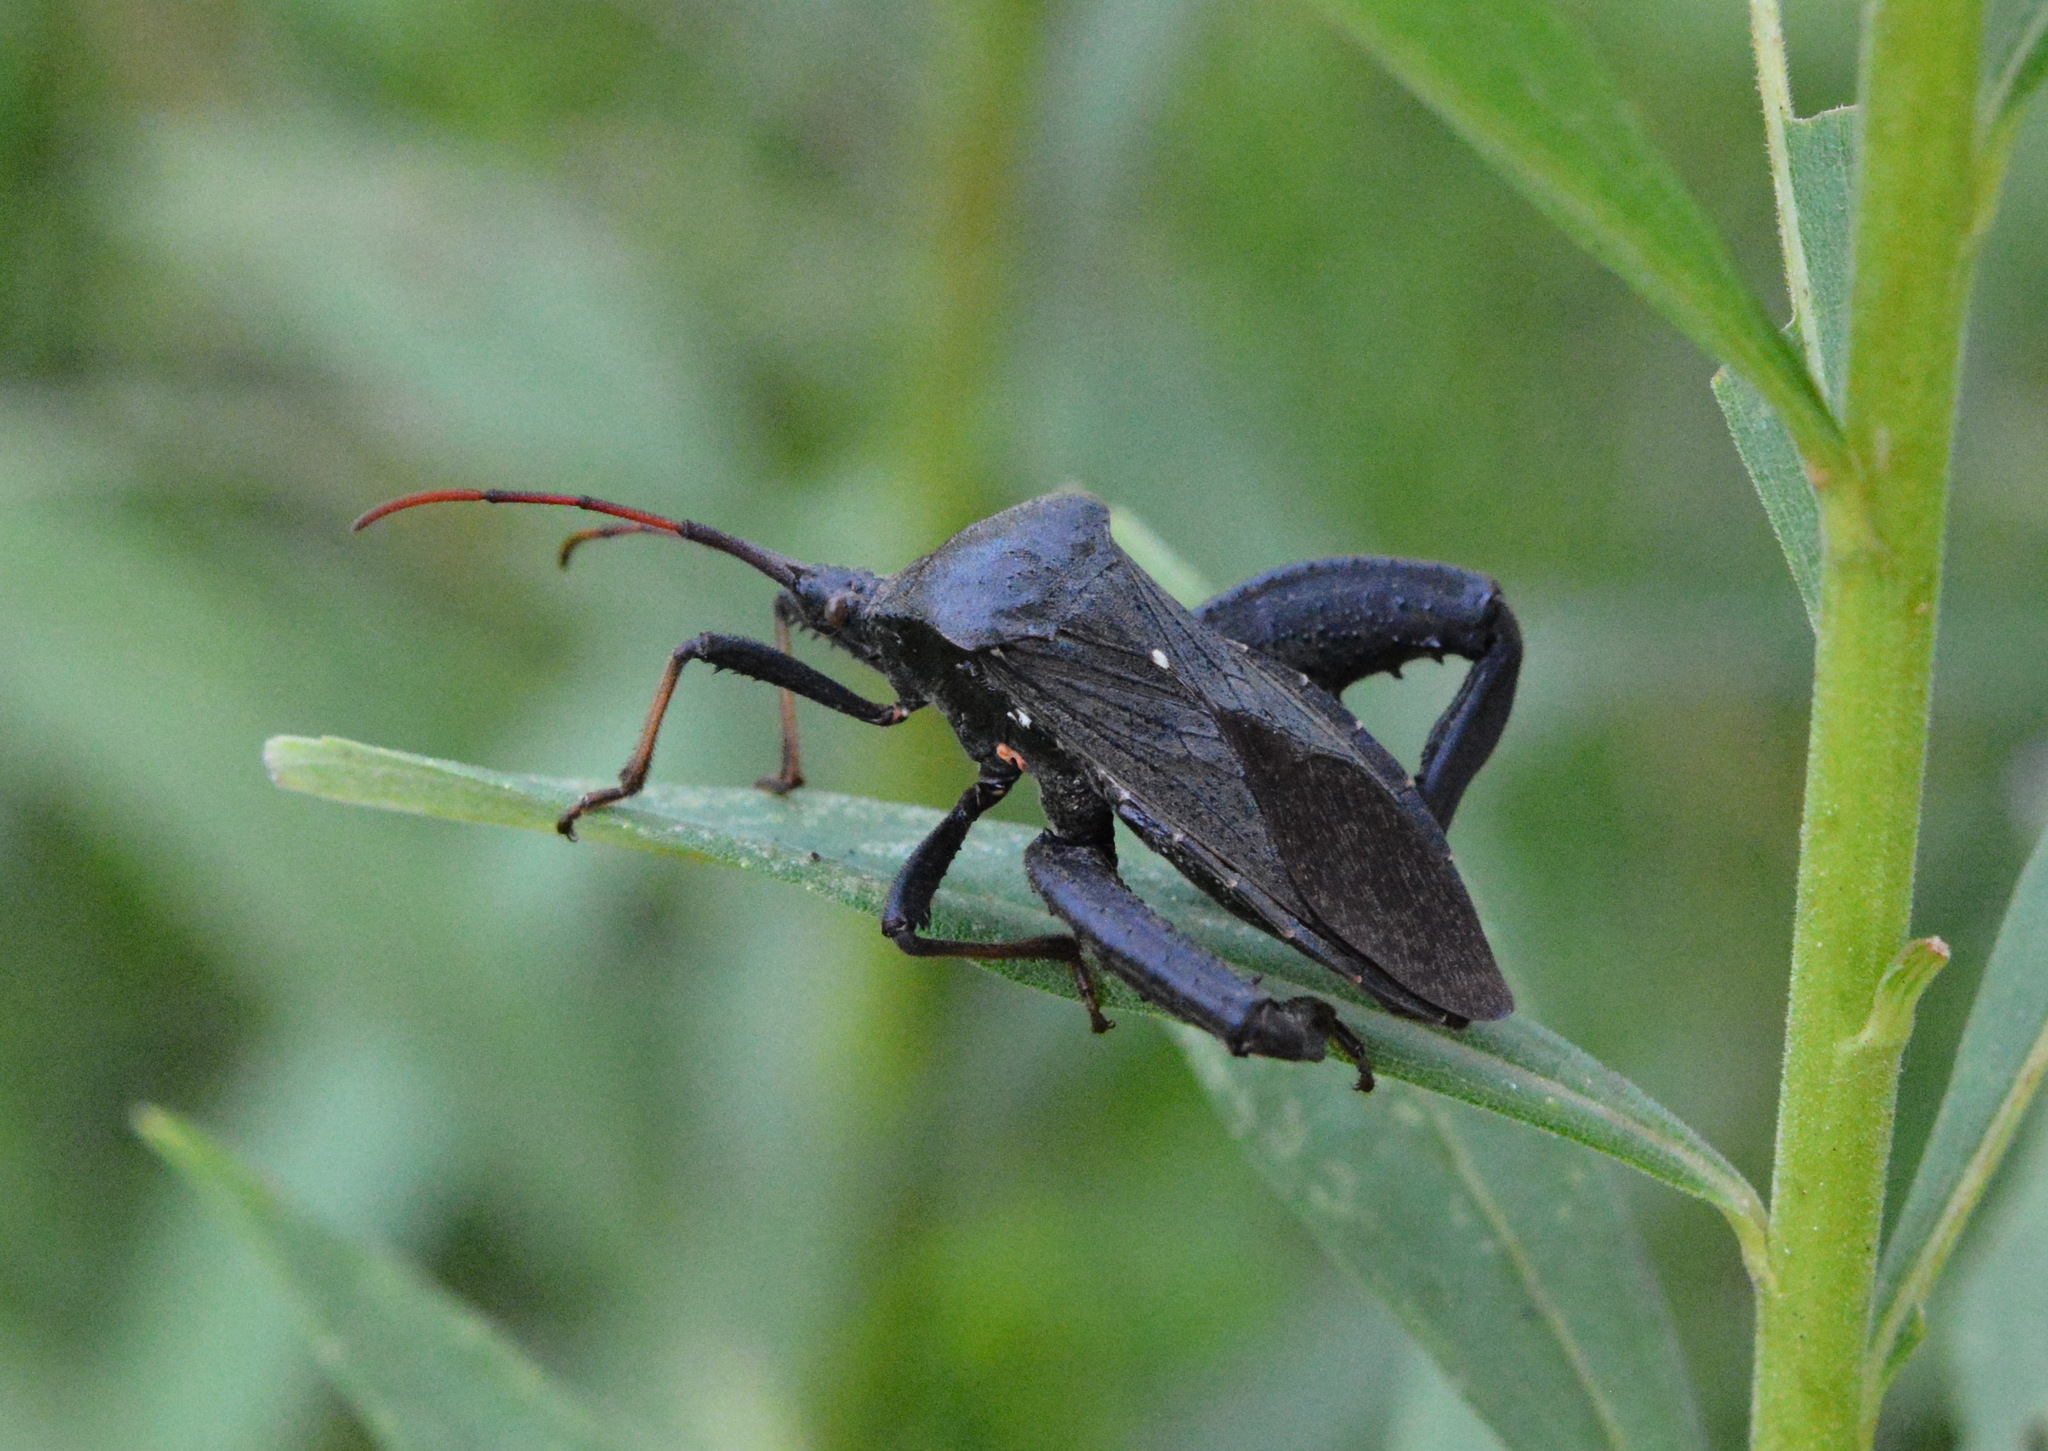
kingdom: Animalia
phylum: Arthropoda
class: Insecta
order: Hemiptera
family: Coreidae
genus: Acanthocephala
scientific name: Acanthocephala femorata
